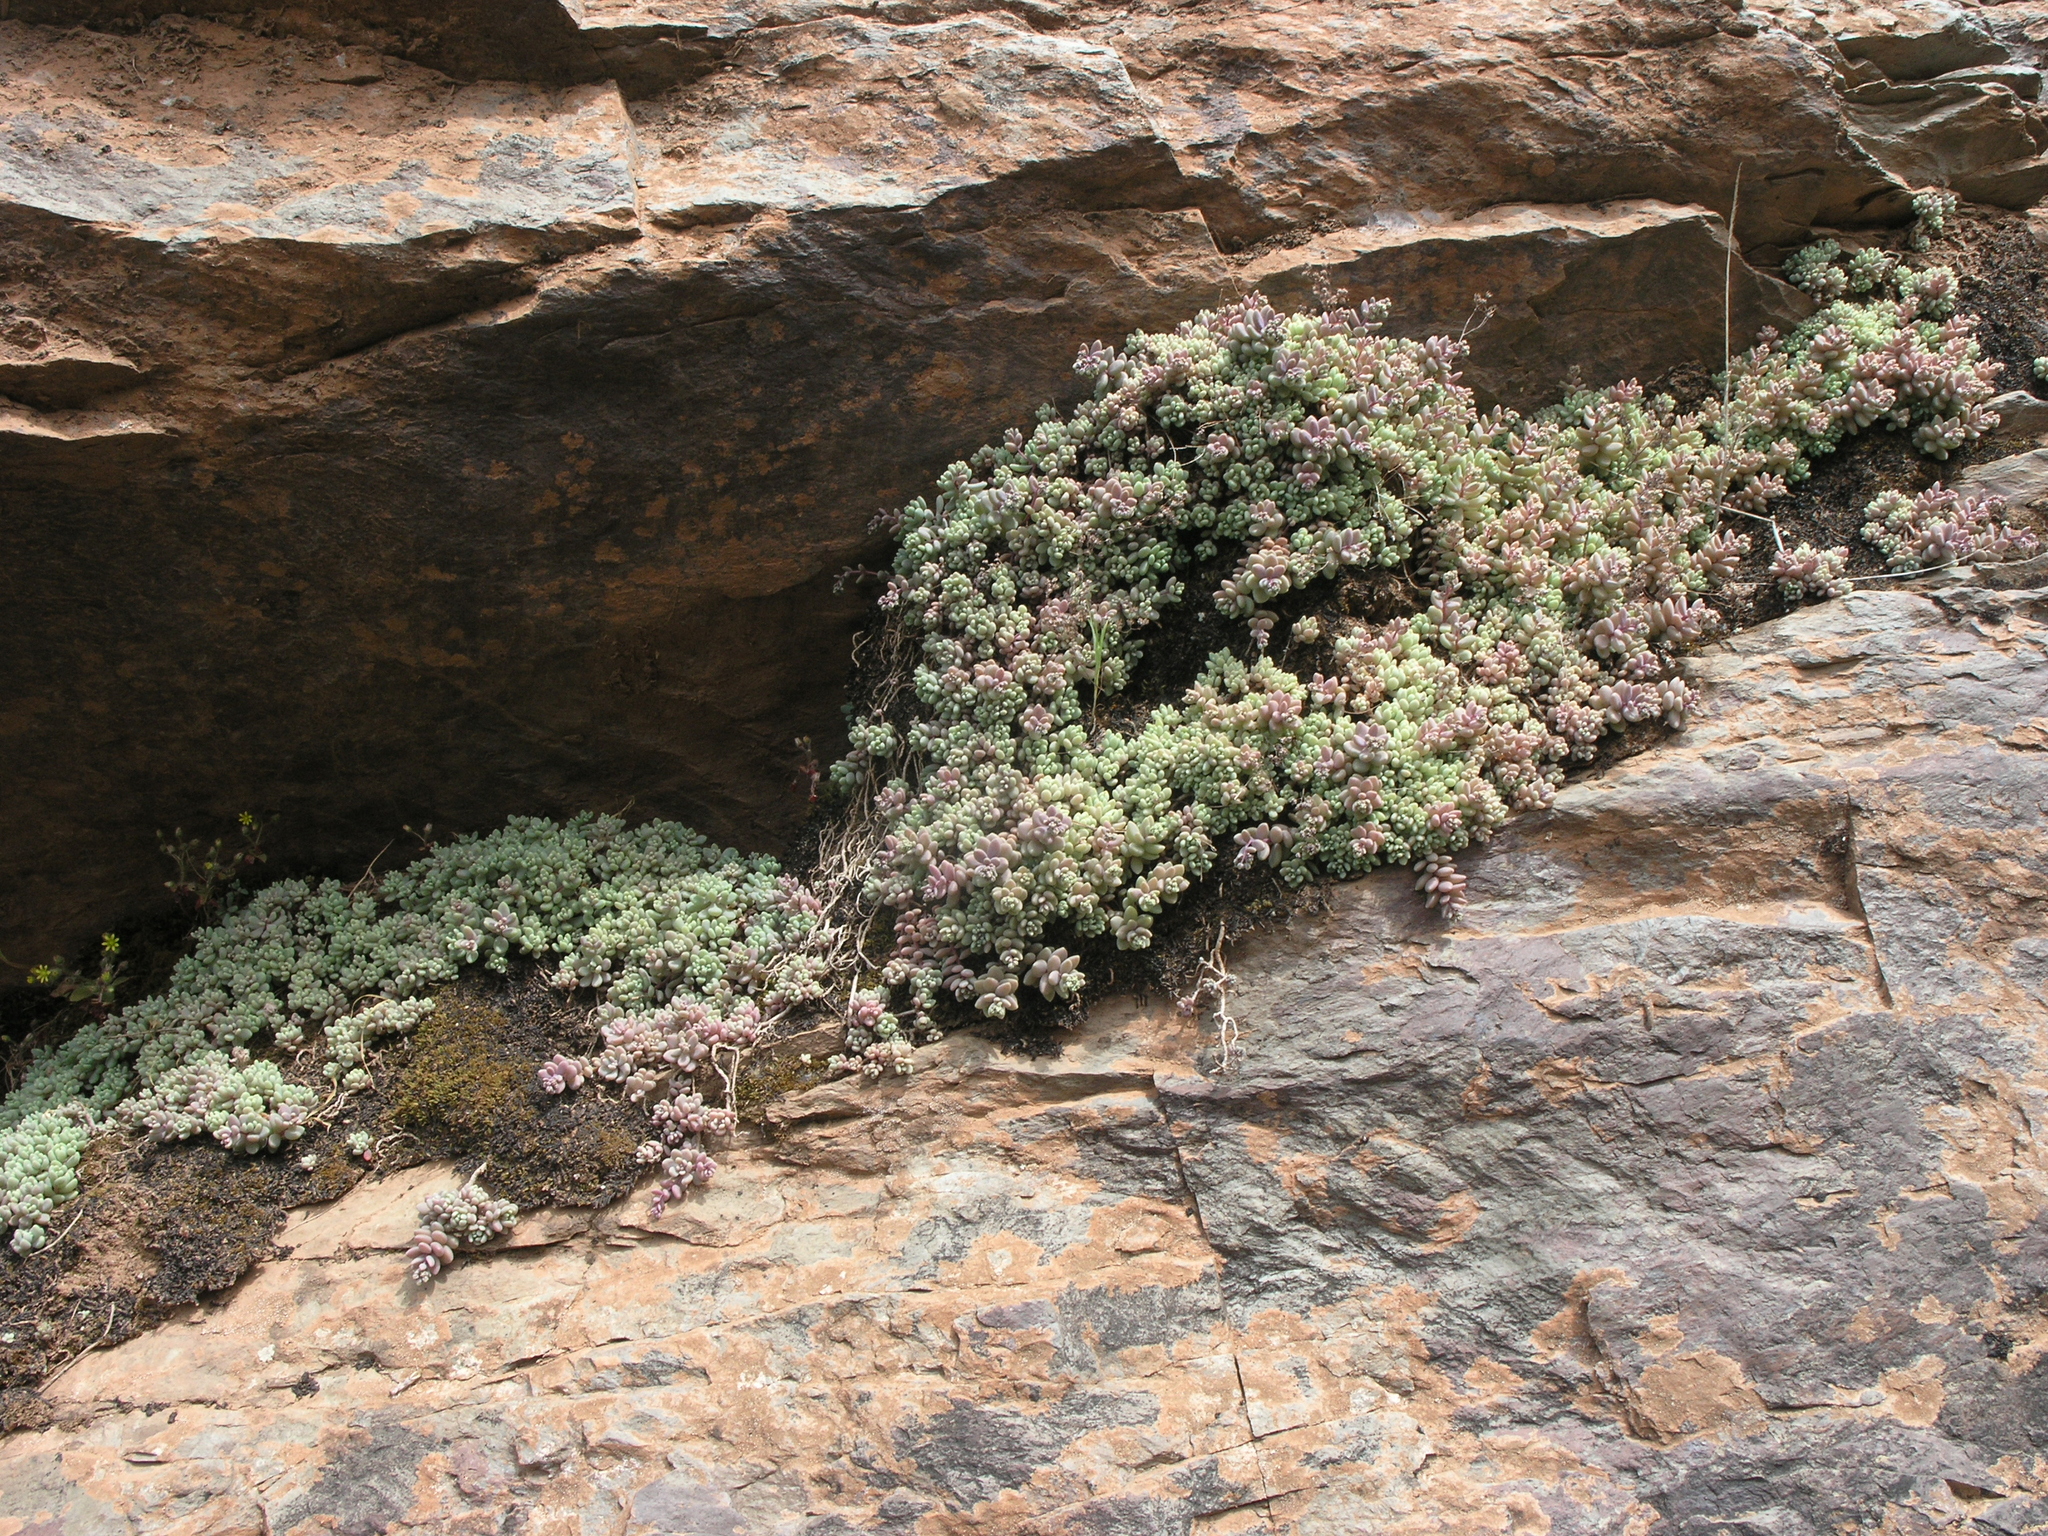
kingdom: Plantae
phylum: Tracheophyta
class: Magnoliopsida
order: Saxifragales
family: Crassulaceae
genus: Sedum
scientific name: Sedum dasyphyllum
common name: Thick-leaf stonecrop
